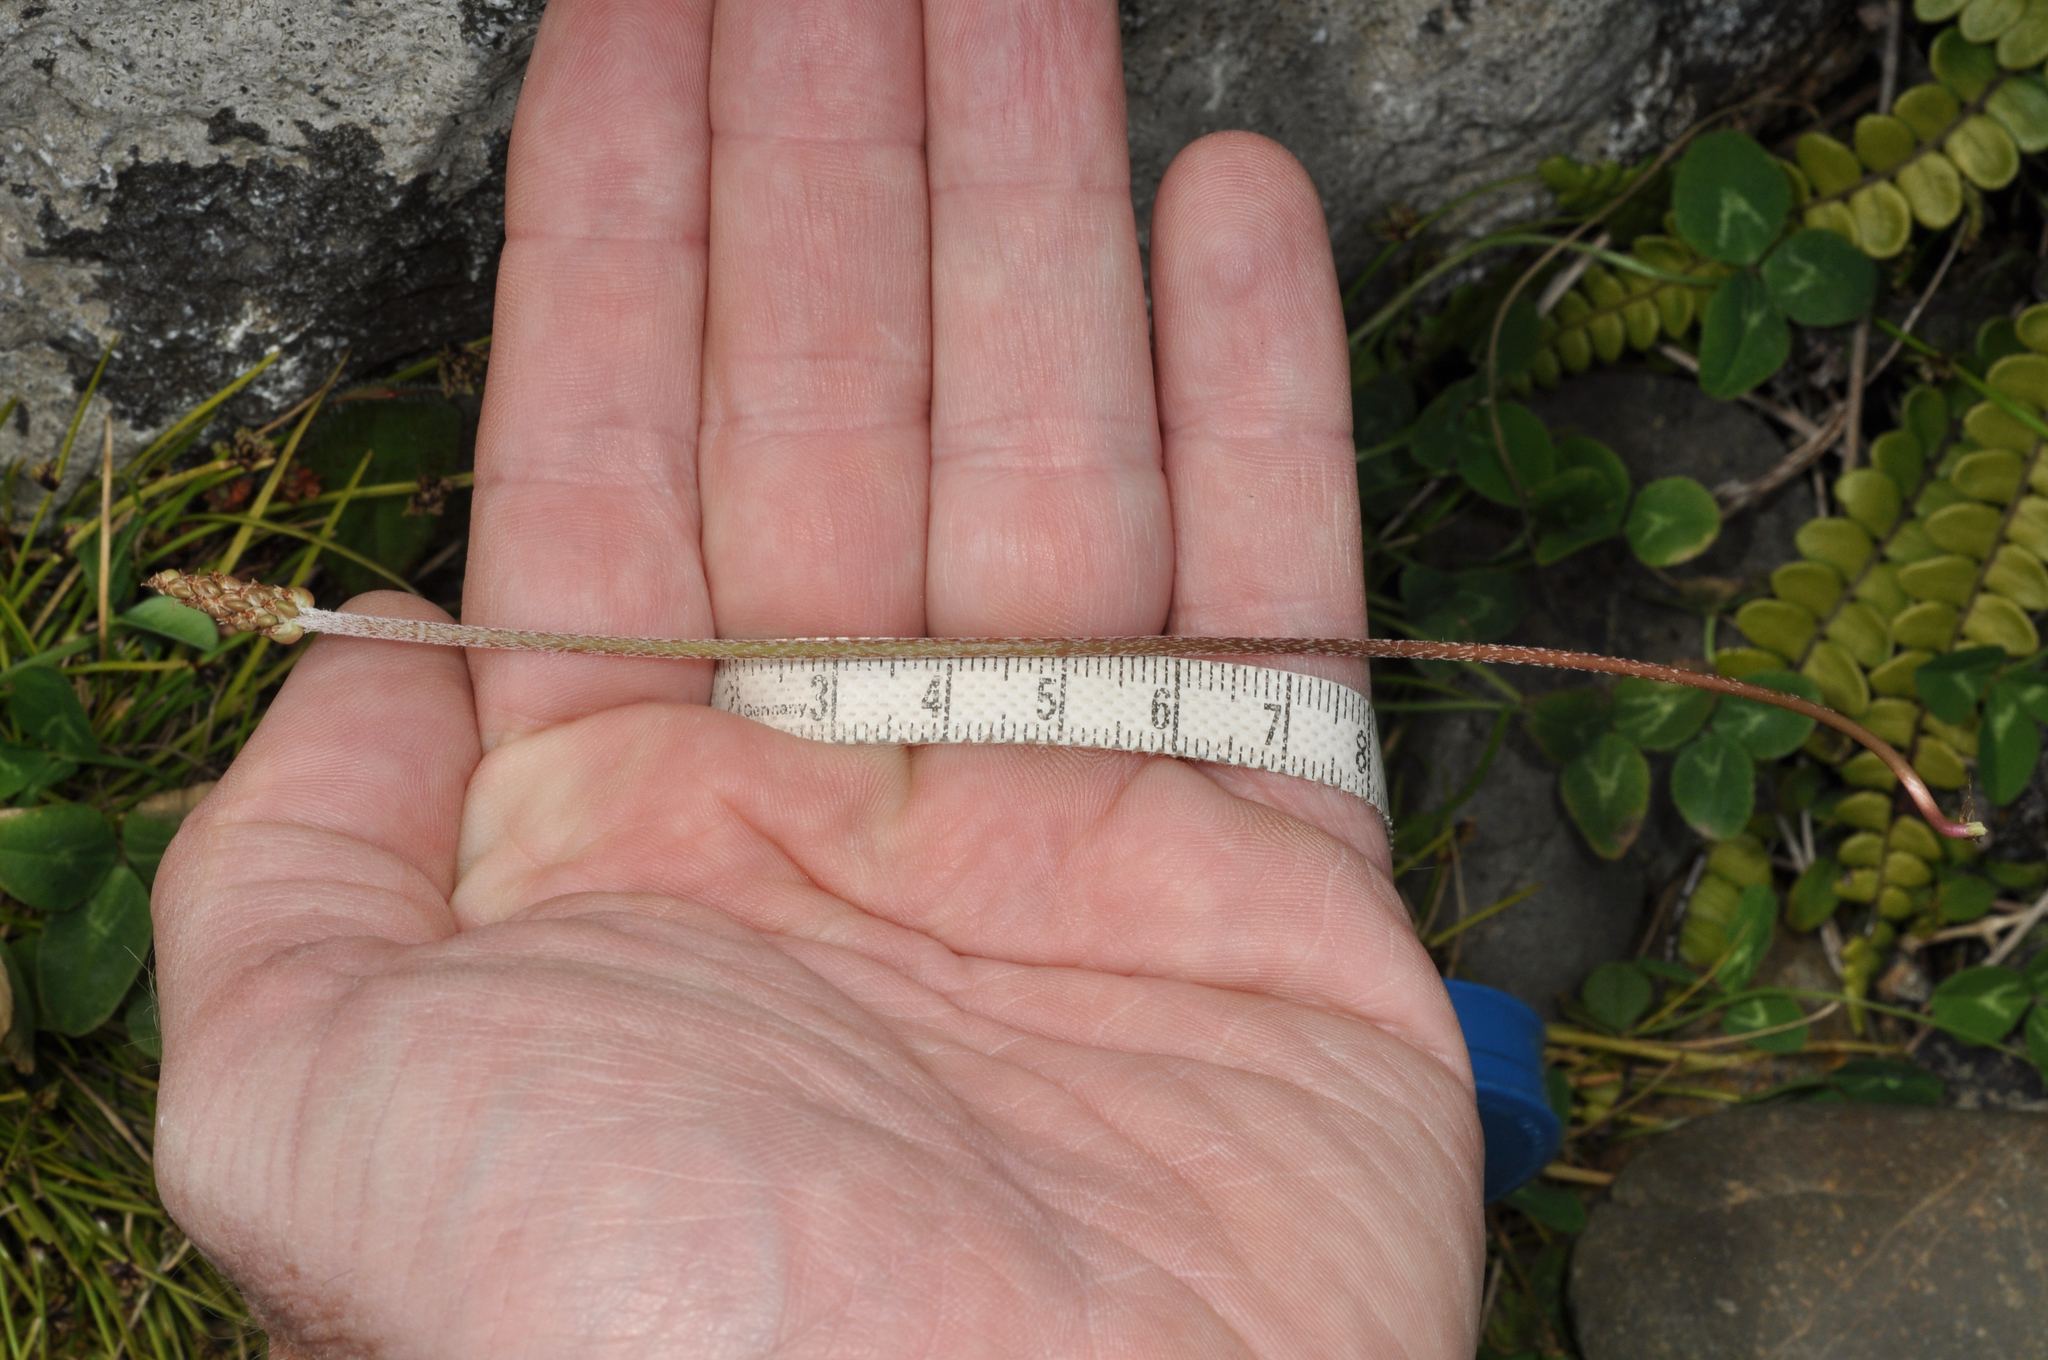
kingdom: Plantae
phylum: Tracheophyta
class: Magnoliopsida
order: Lamiales
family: Plantaginaceae
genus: Plantago
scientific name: Plantago raoulii
